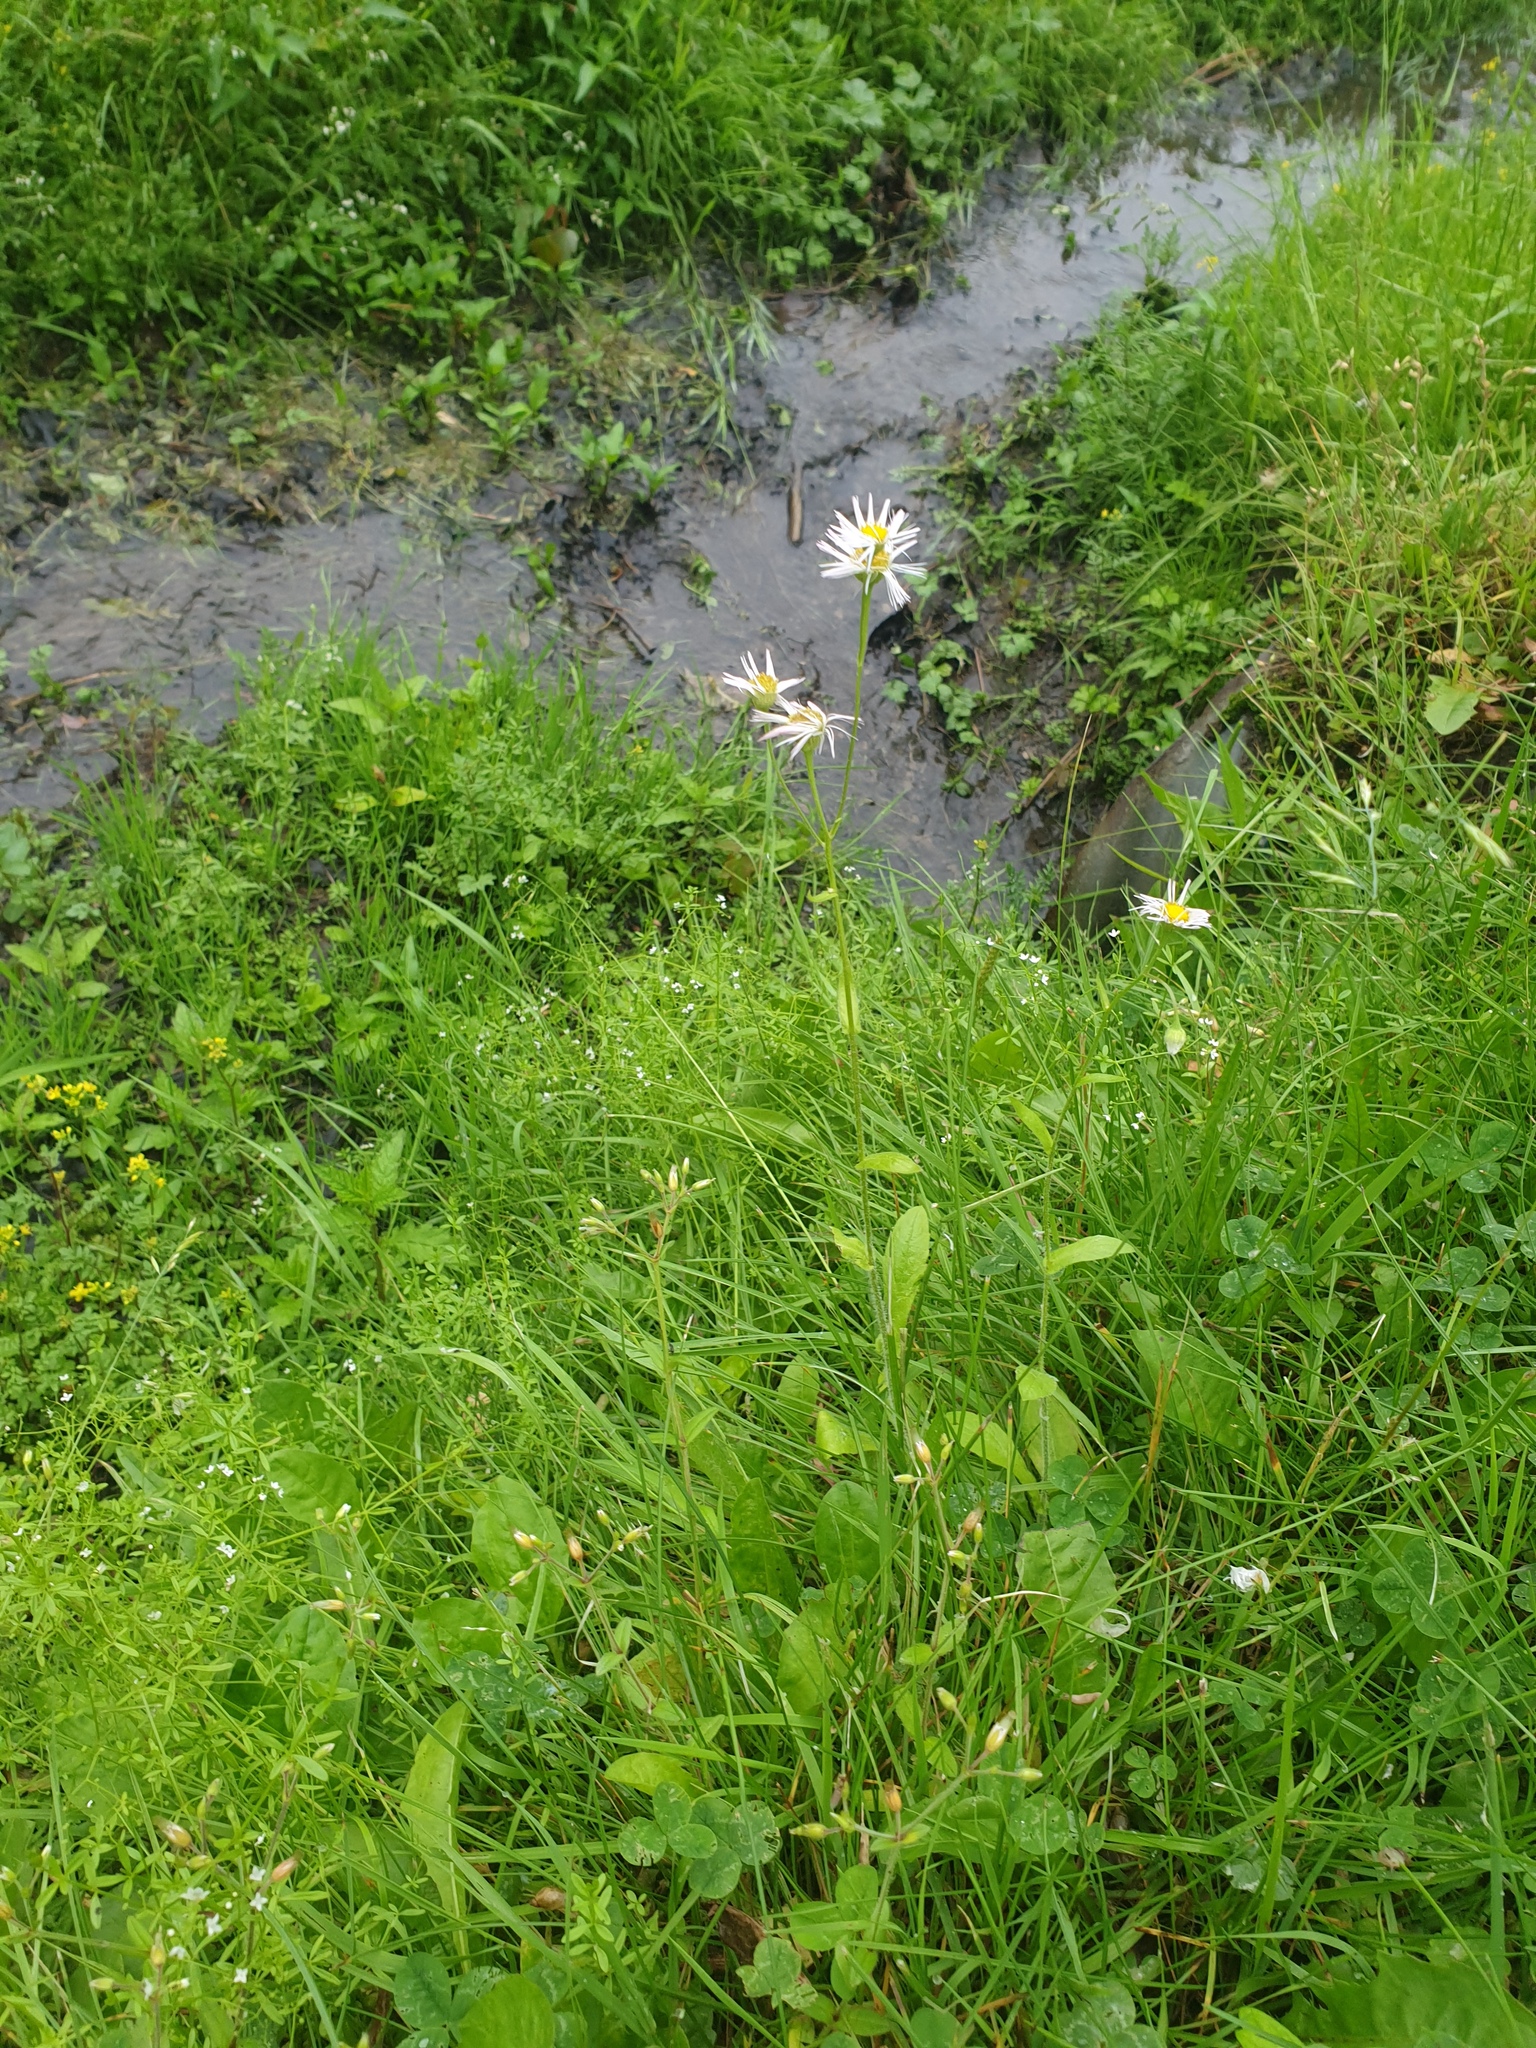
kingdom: Plantae
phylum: Tracheophyta
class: Magnoliopsida
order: Asterales
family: Asteraceae
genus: Erigeron
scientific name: Erigeron philadelphicus
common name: Robin's-plantain
